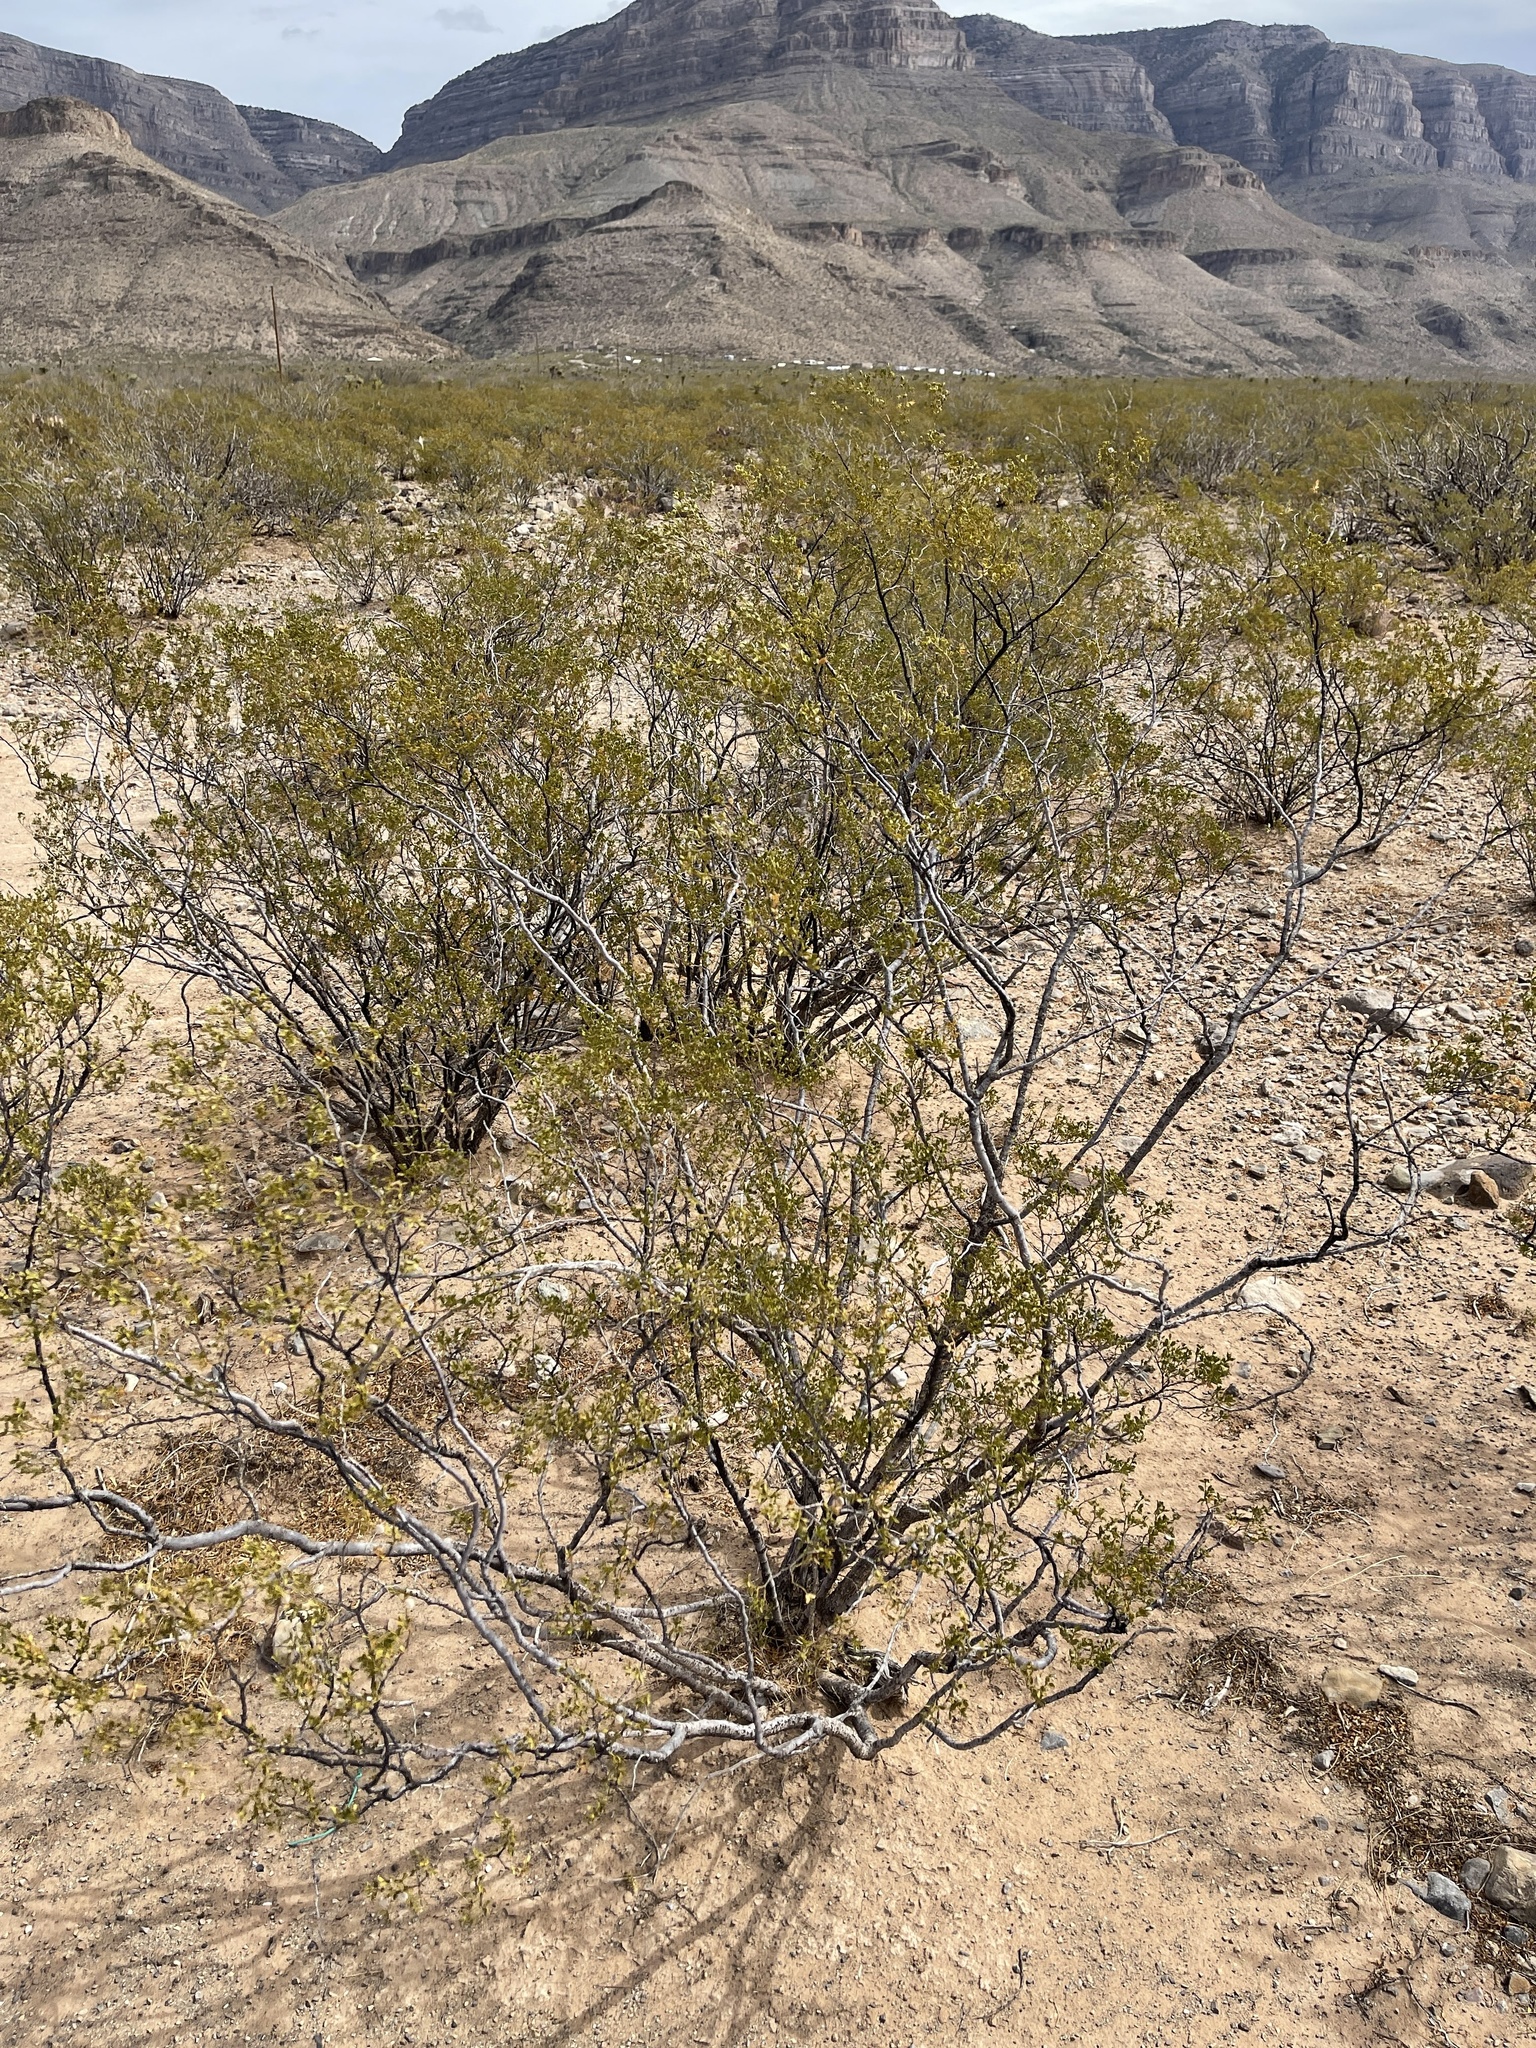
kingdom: Plantae
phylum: Tracheophyta
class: Magnoliopsida
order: Zygophyllales
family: Zygophyllaceae
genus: Larrea
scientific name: Larrea tridentata
